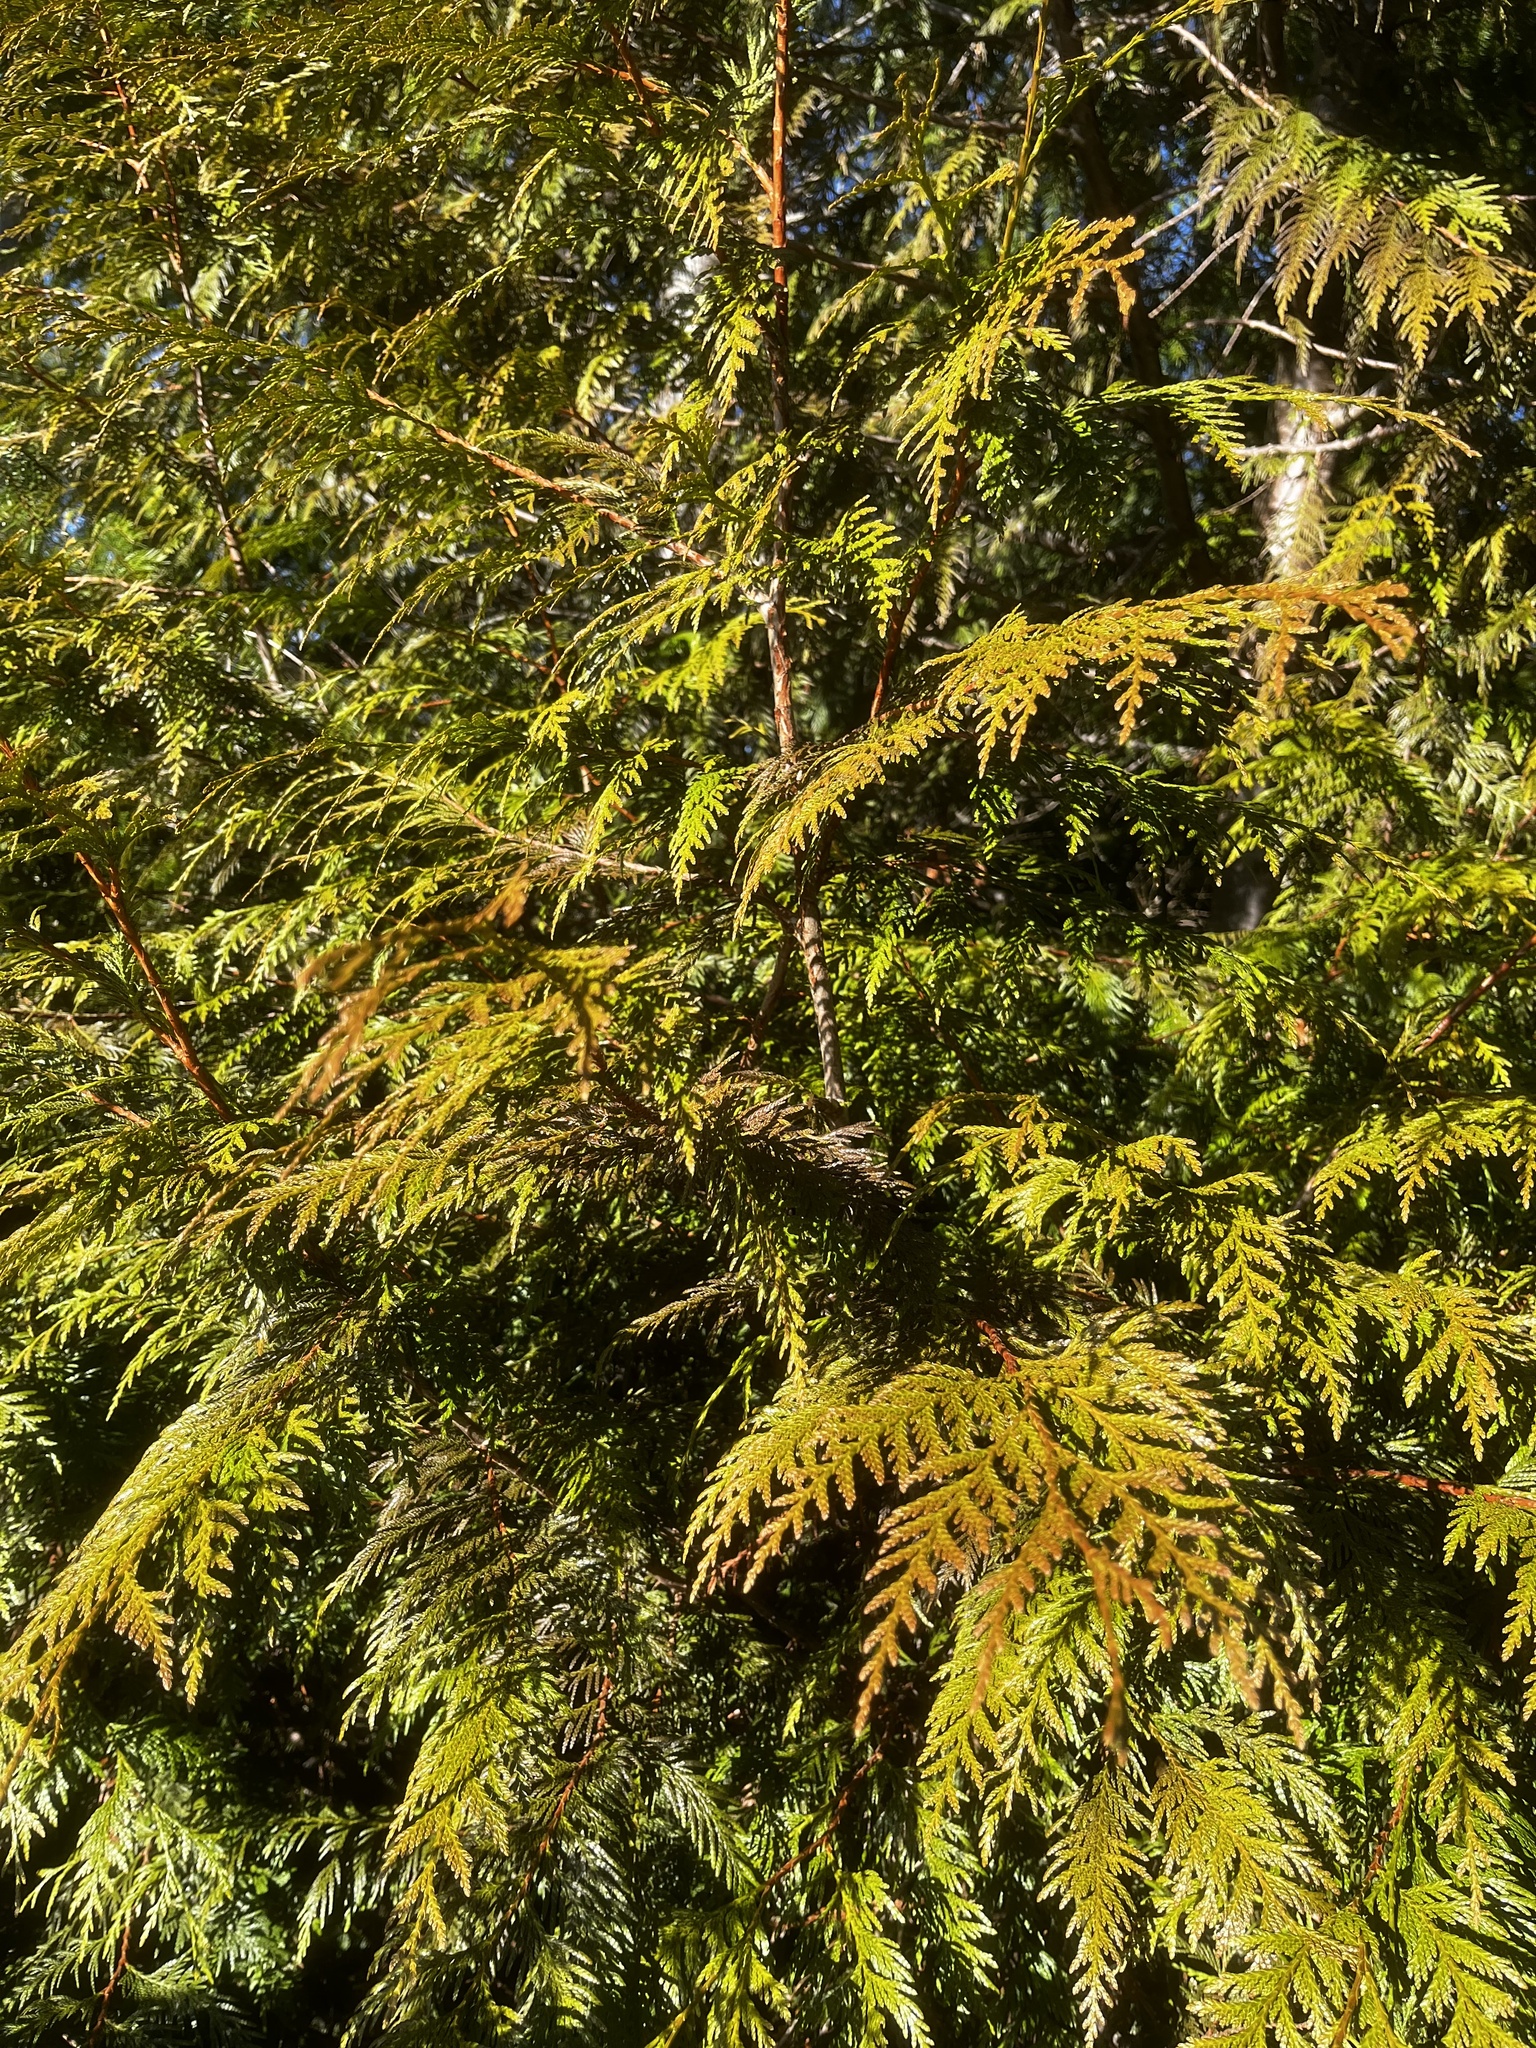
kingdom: Plantae
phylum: Tracheophyta
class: Pinopsida
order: Pinales
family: Cupressaceae
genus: Thuja
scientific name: Thuja plicata
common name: Western red-cedar
